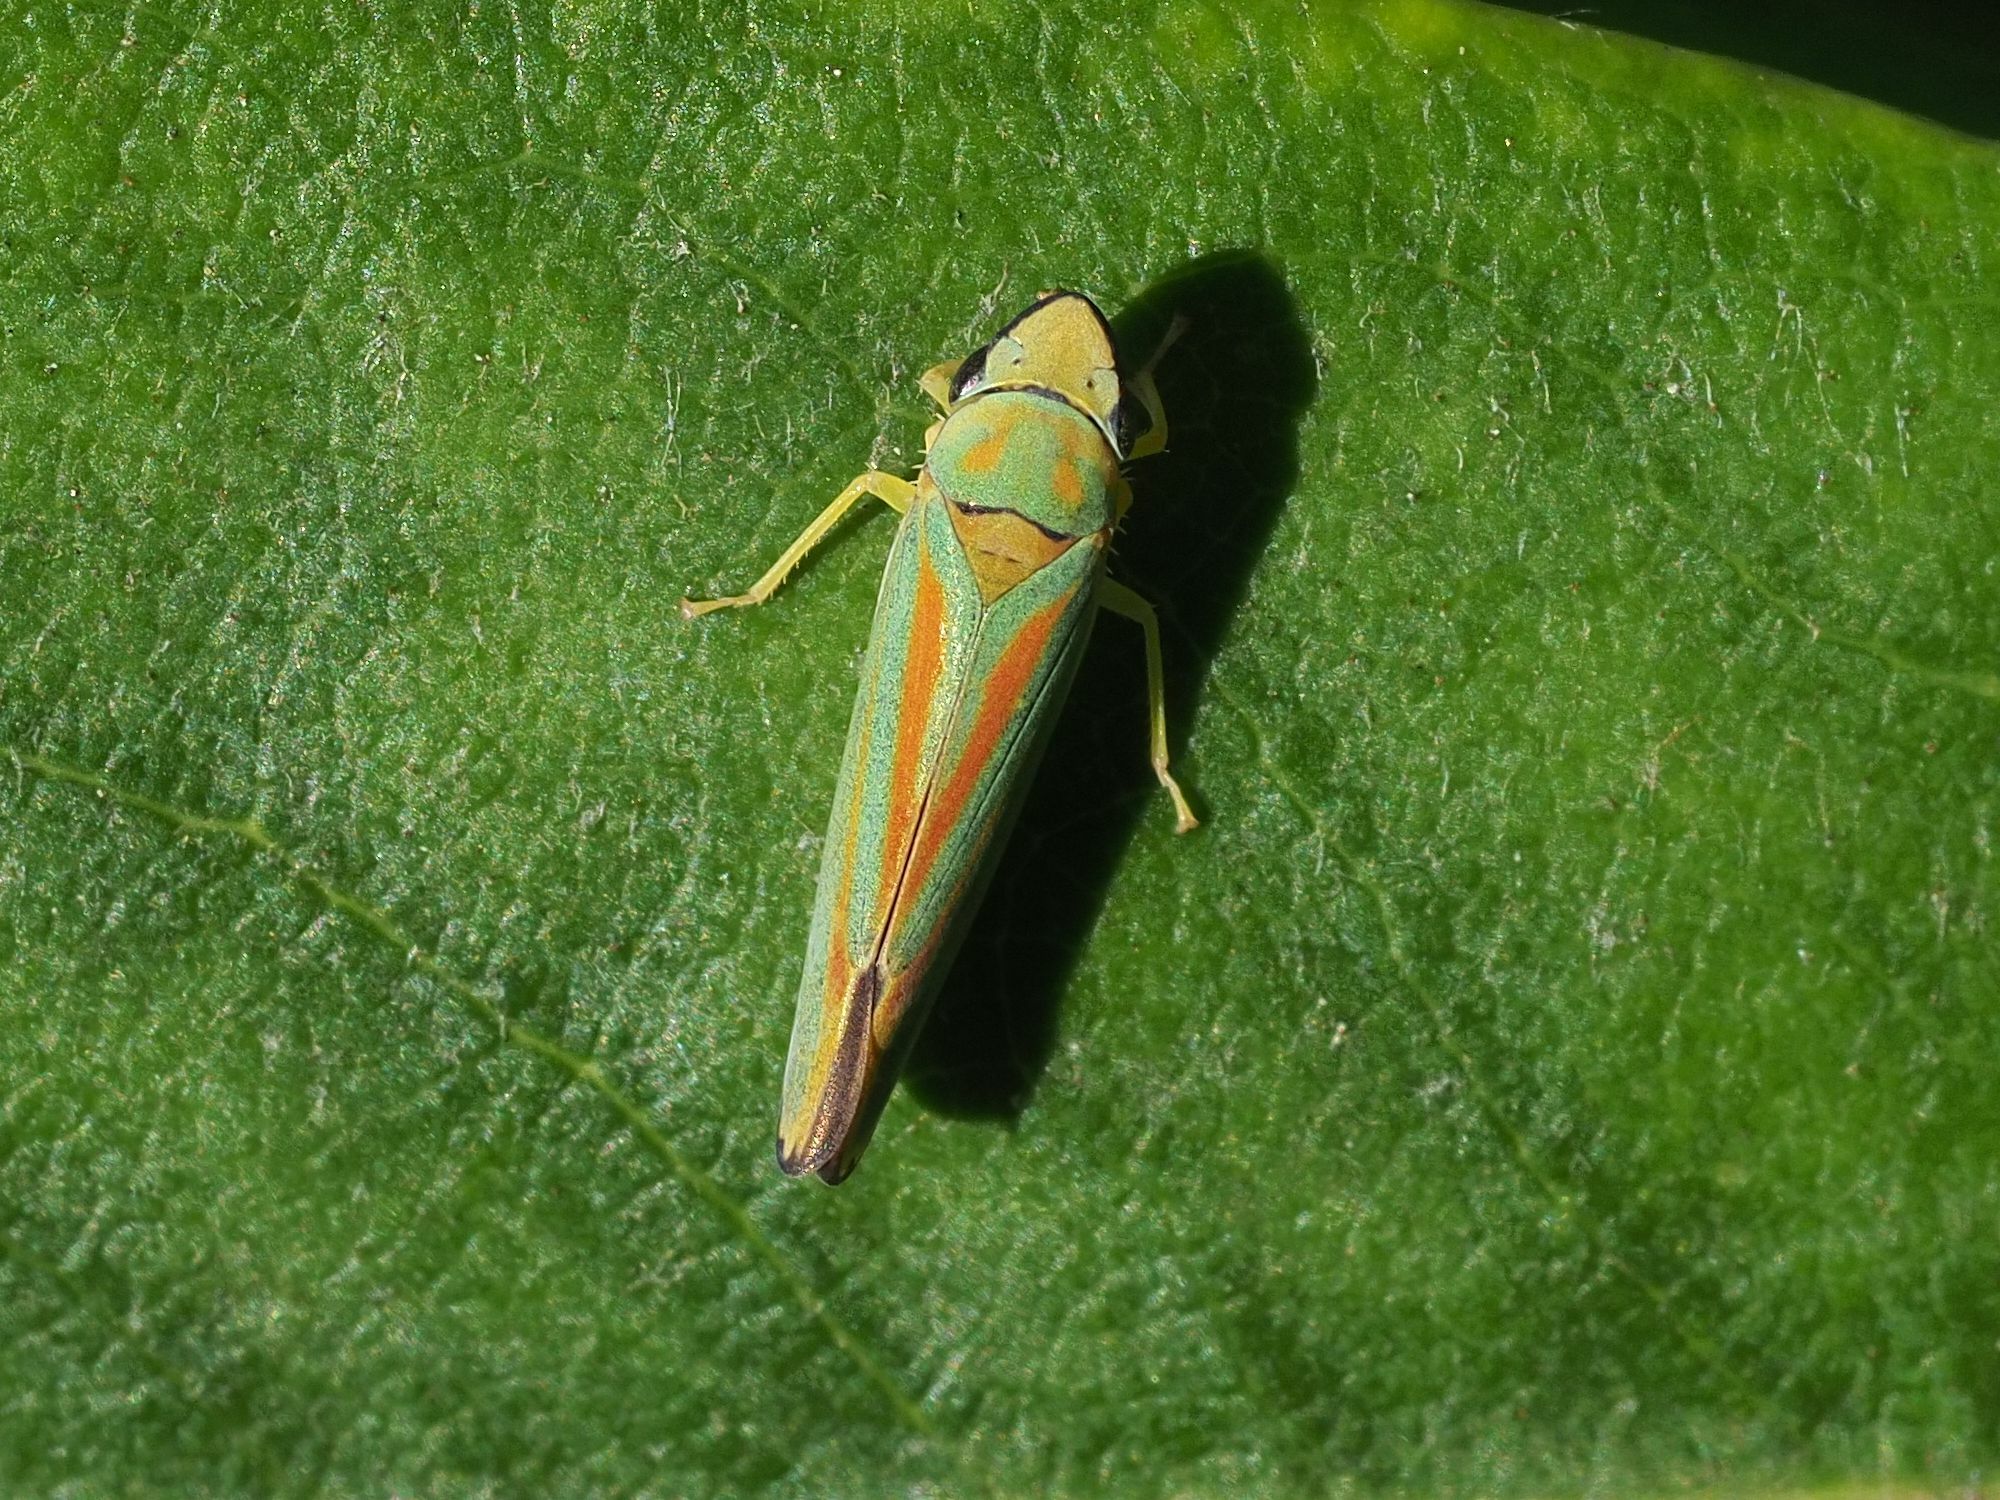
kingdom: Animalia
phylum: Arthropoda
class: Insecta
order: Hemiptera
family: Cicadellidae
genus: Graphocephala
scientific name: Graphocephala fennahi
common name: Rhododendron leafhopper
